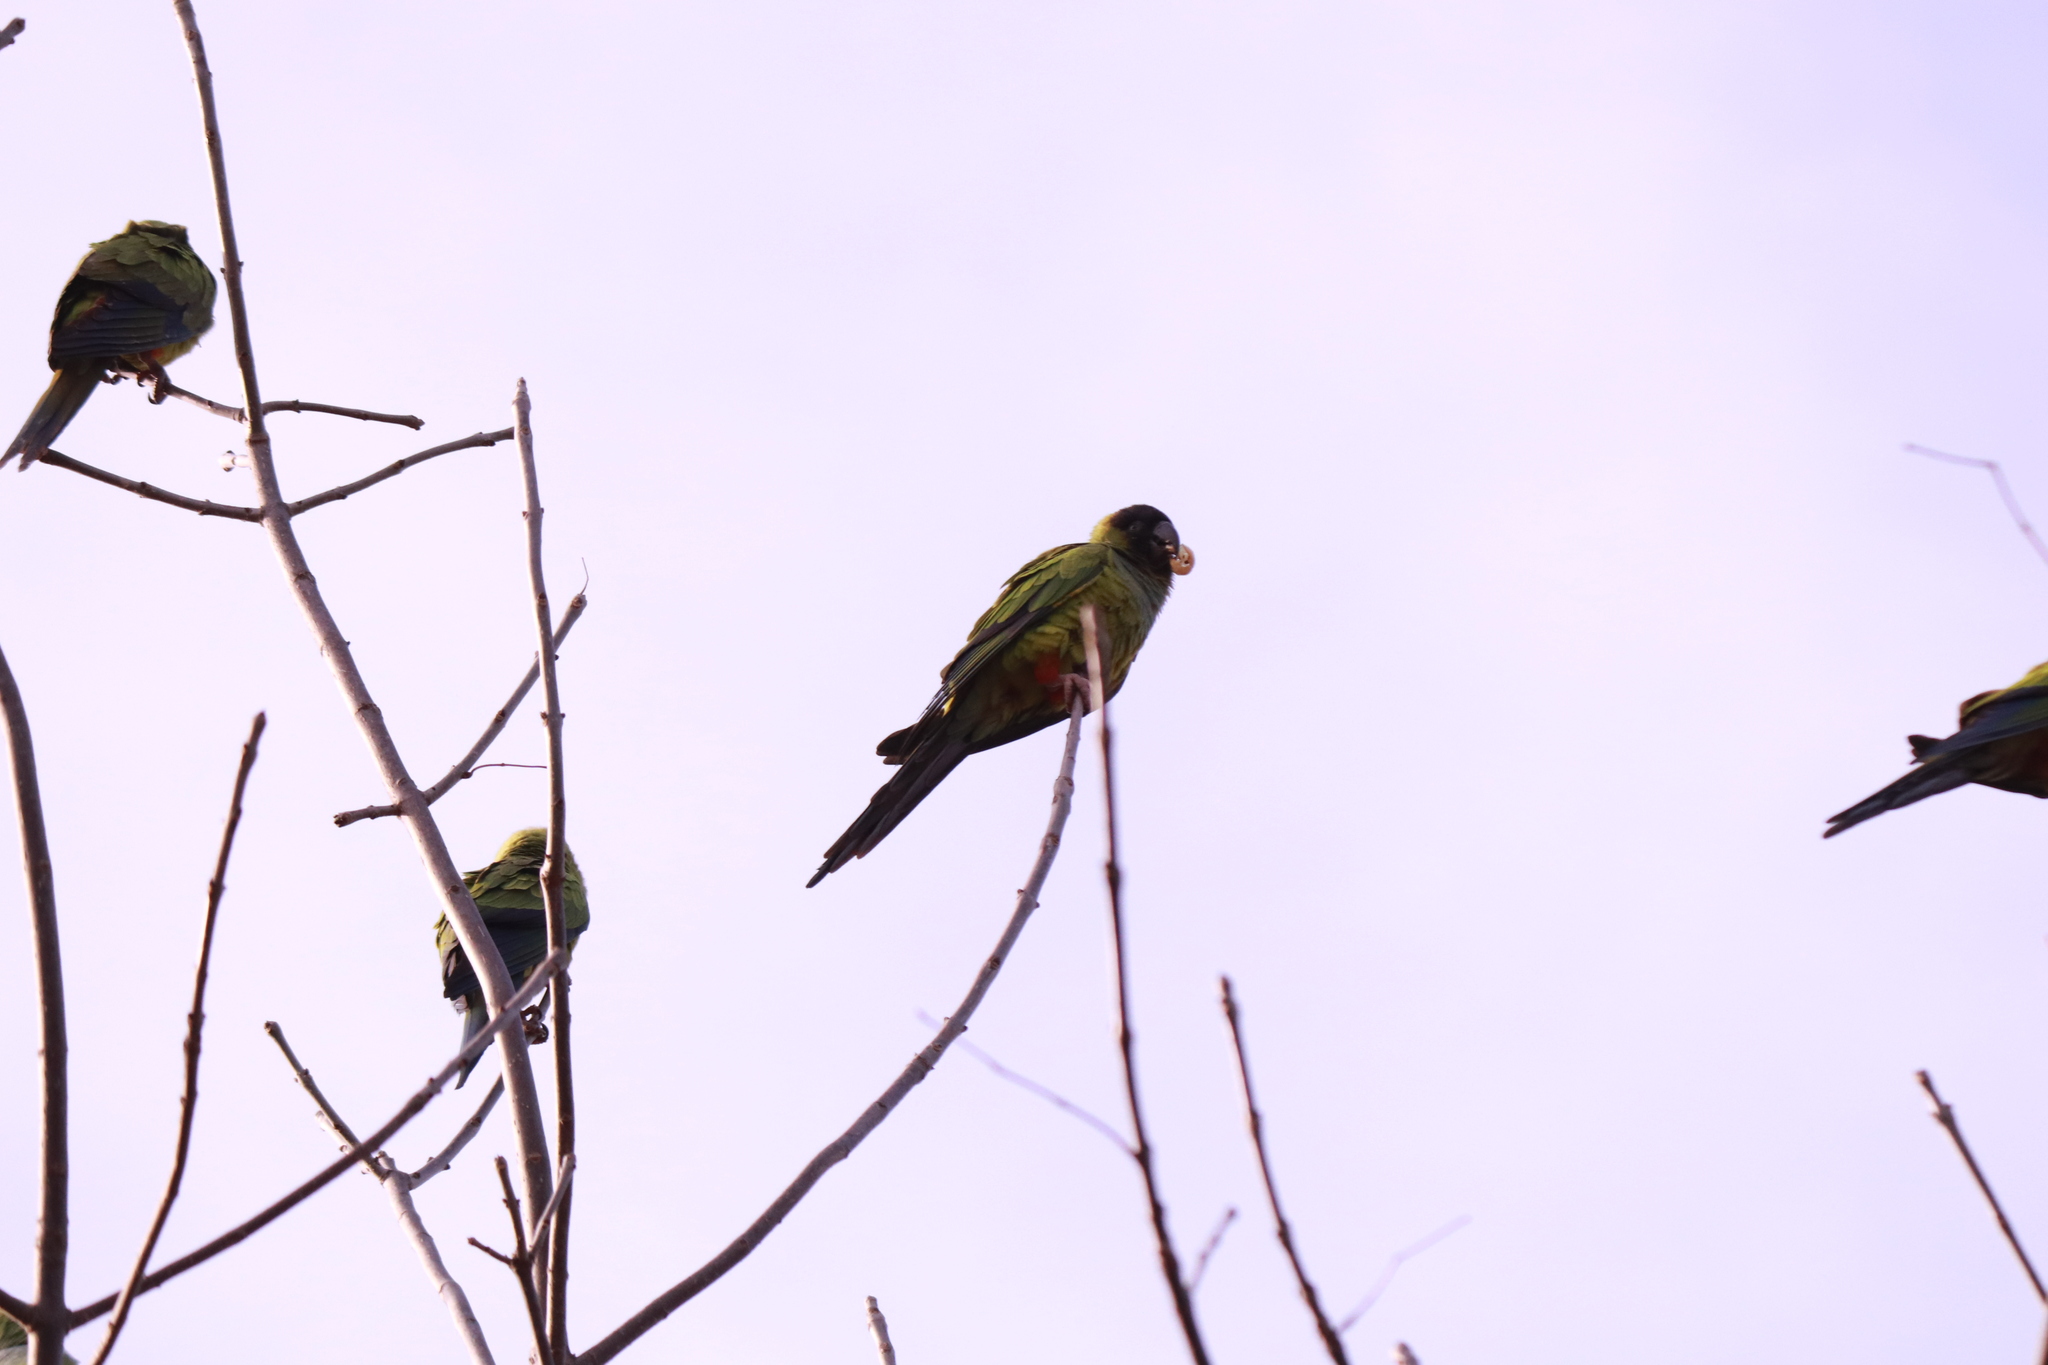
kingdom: Animalia
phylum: Chordata
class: Aves
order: Psittaciformes
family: Psittacidae
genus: Nandayus
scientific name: Nandayus nenday
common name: Nanday parakeet
